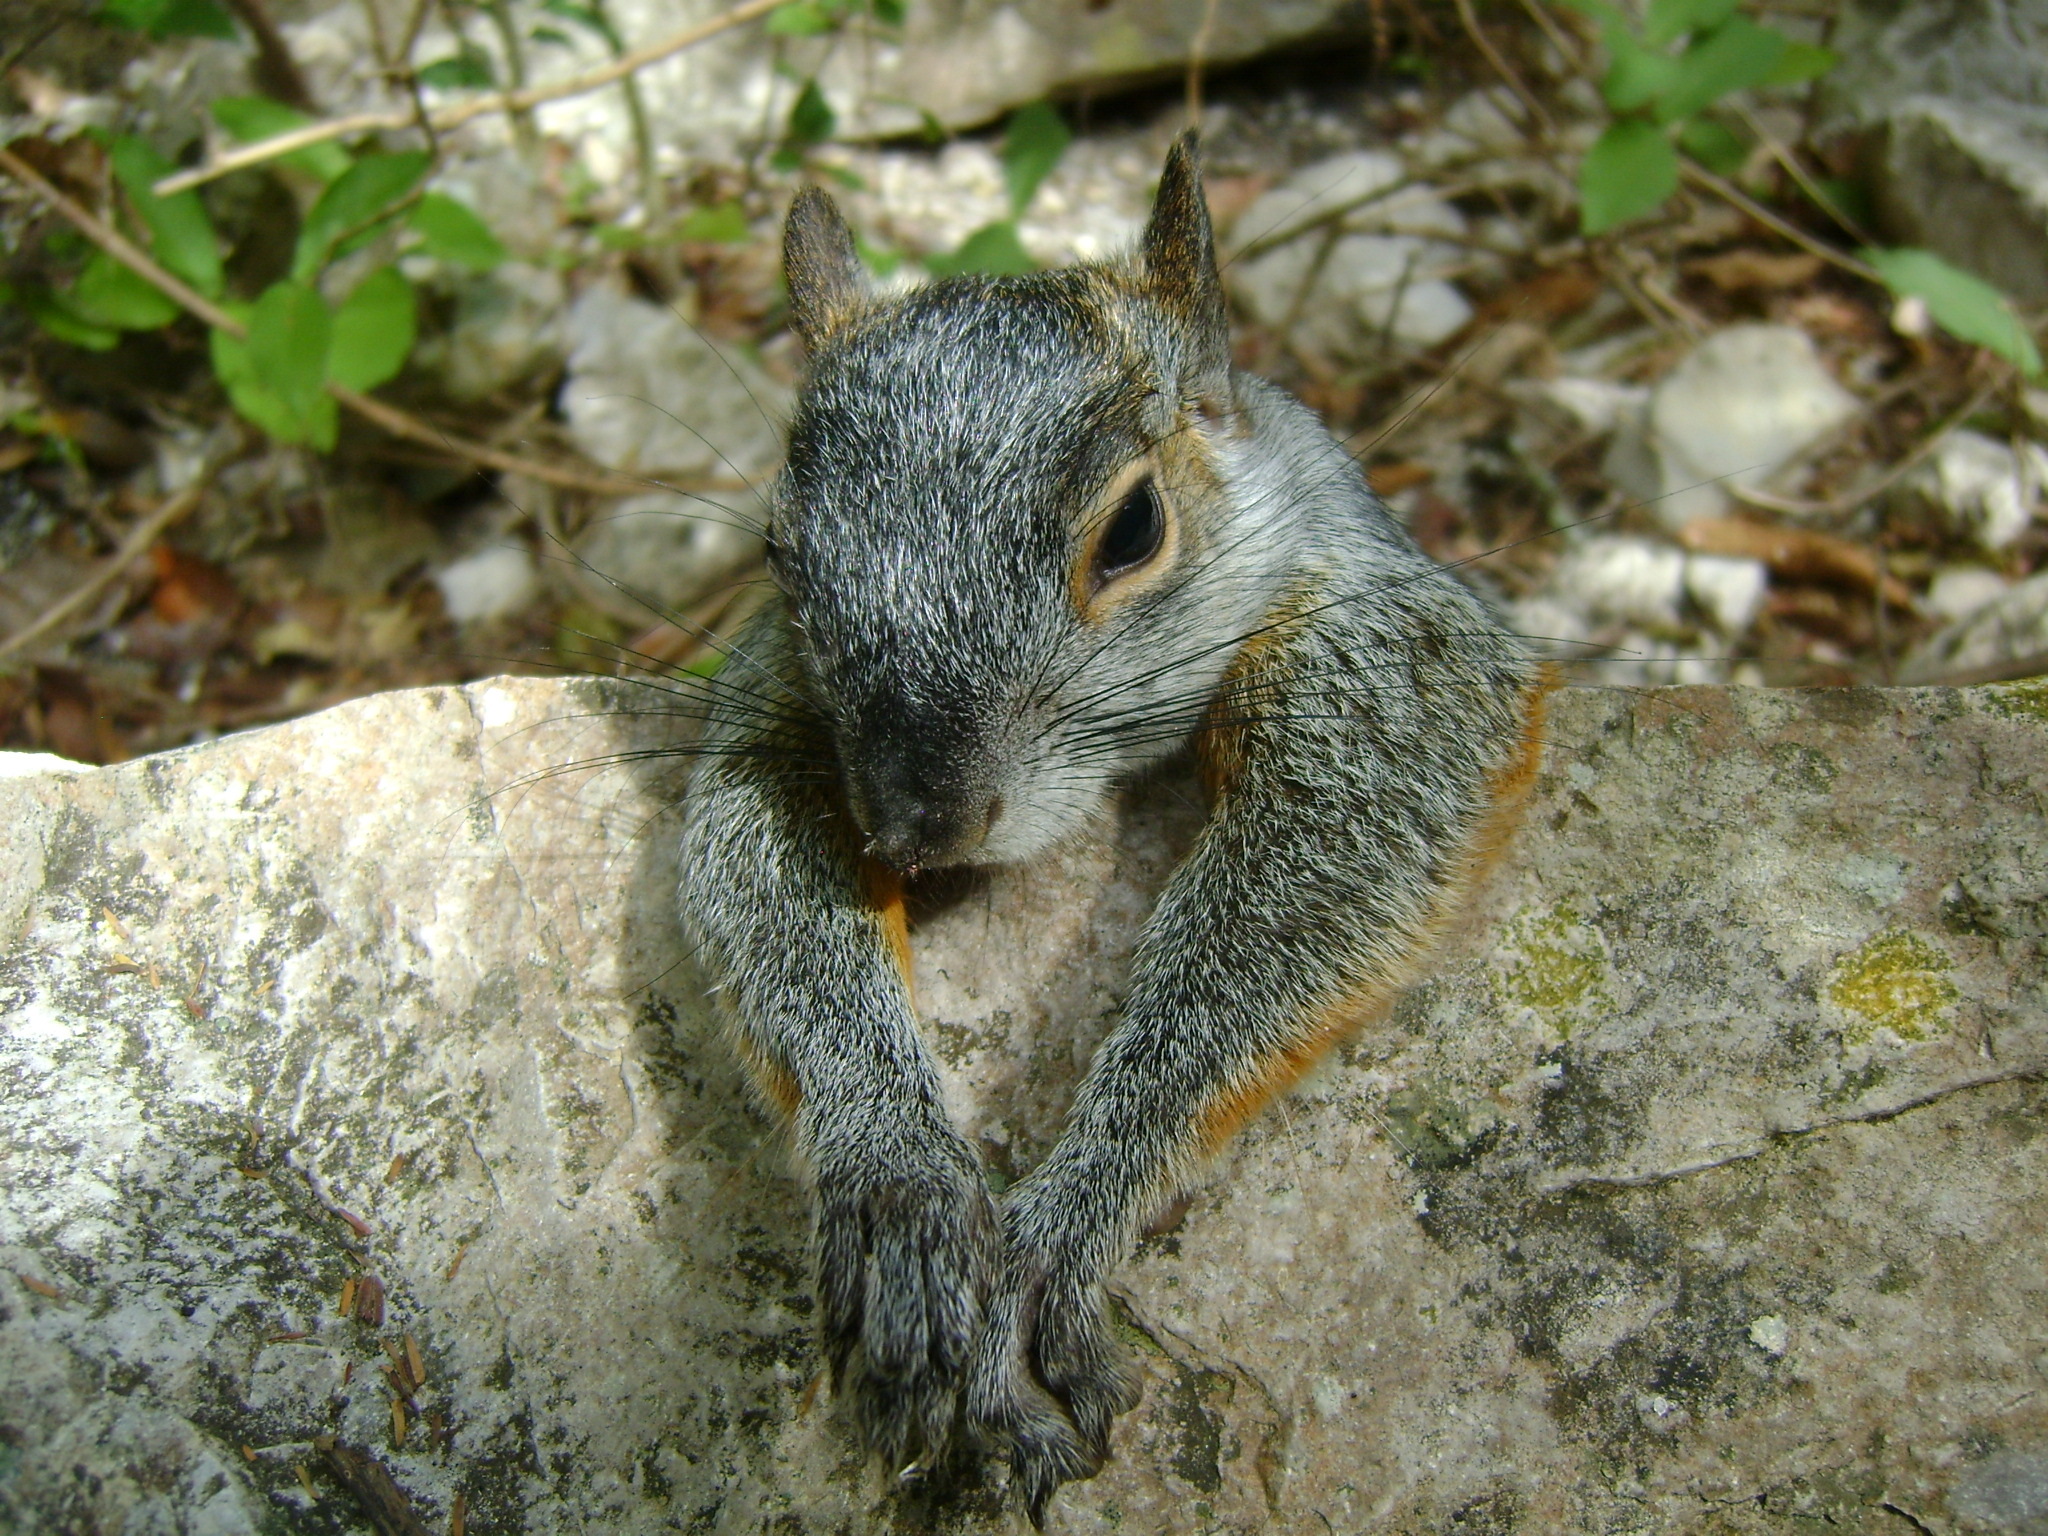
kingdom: Animalia
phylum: Chordata
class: Mammalia
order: Rodentia
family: Sciuridae
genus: Sciurus
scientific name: Sciurus aureogaster
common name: Red-bellied squirrel
